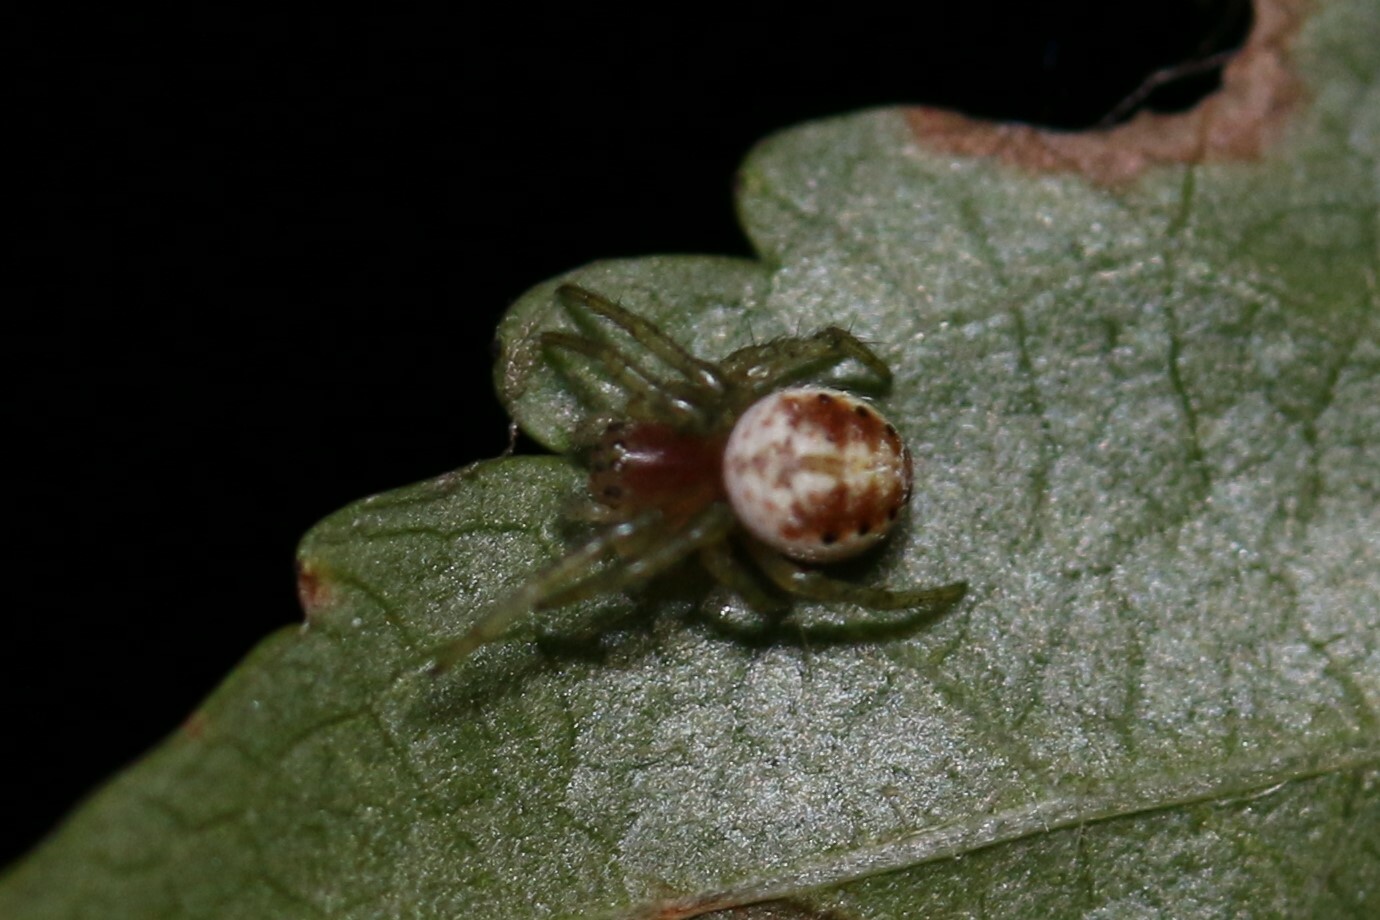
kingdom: Animalia
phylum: Arthropoda
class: Arachnida
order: Araneae
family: Araneidae
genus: Araniella
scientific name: Araniella
